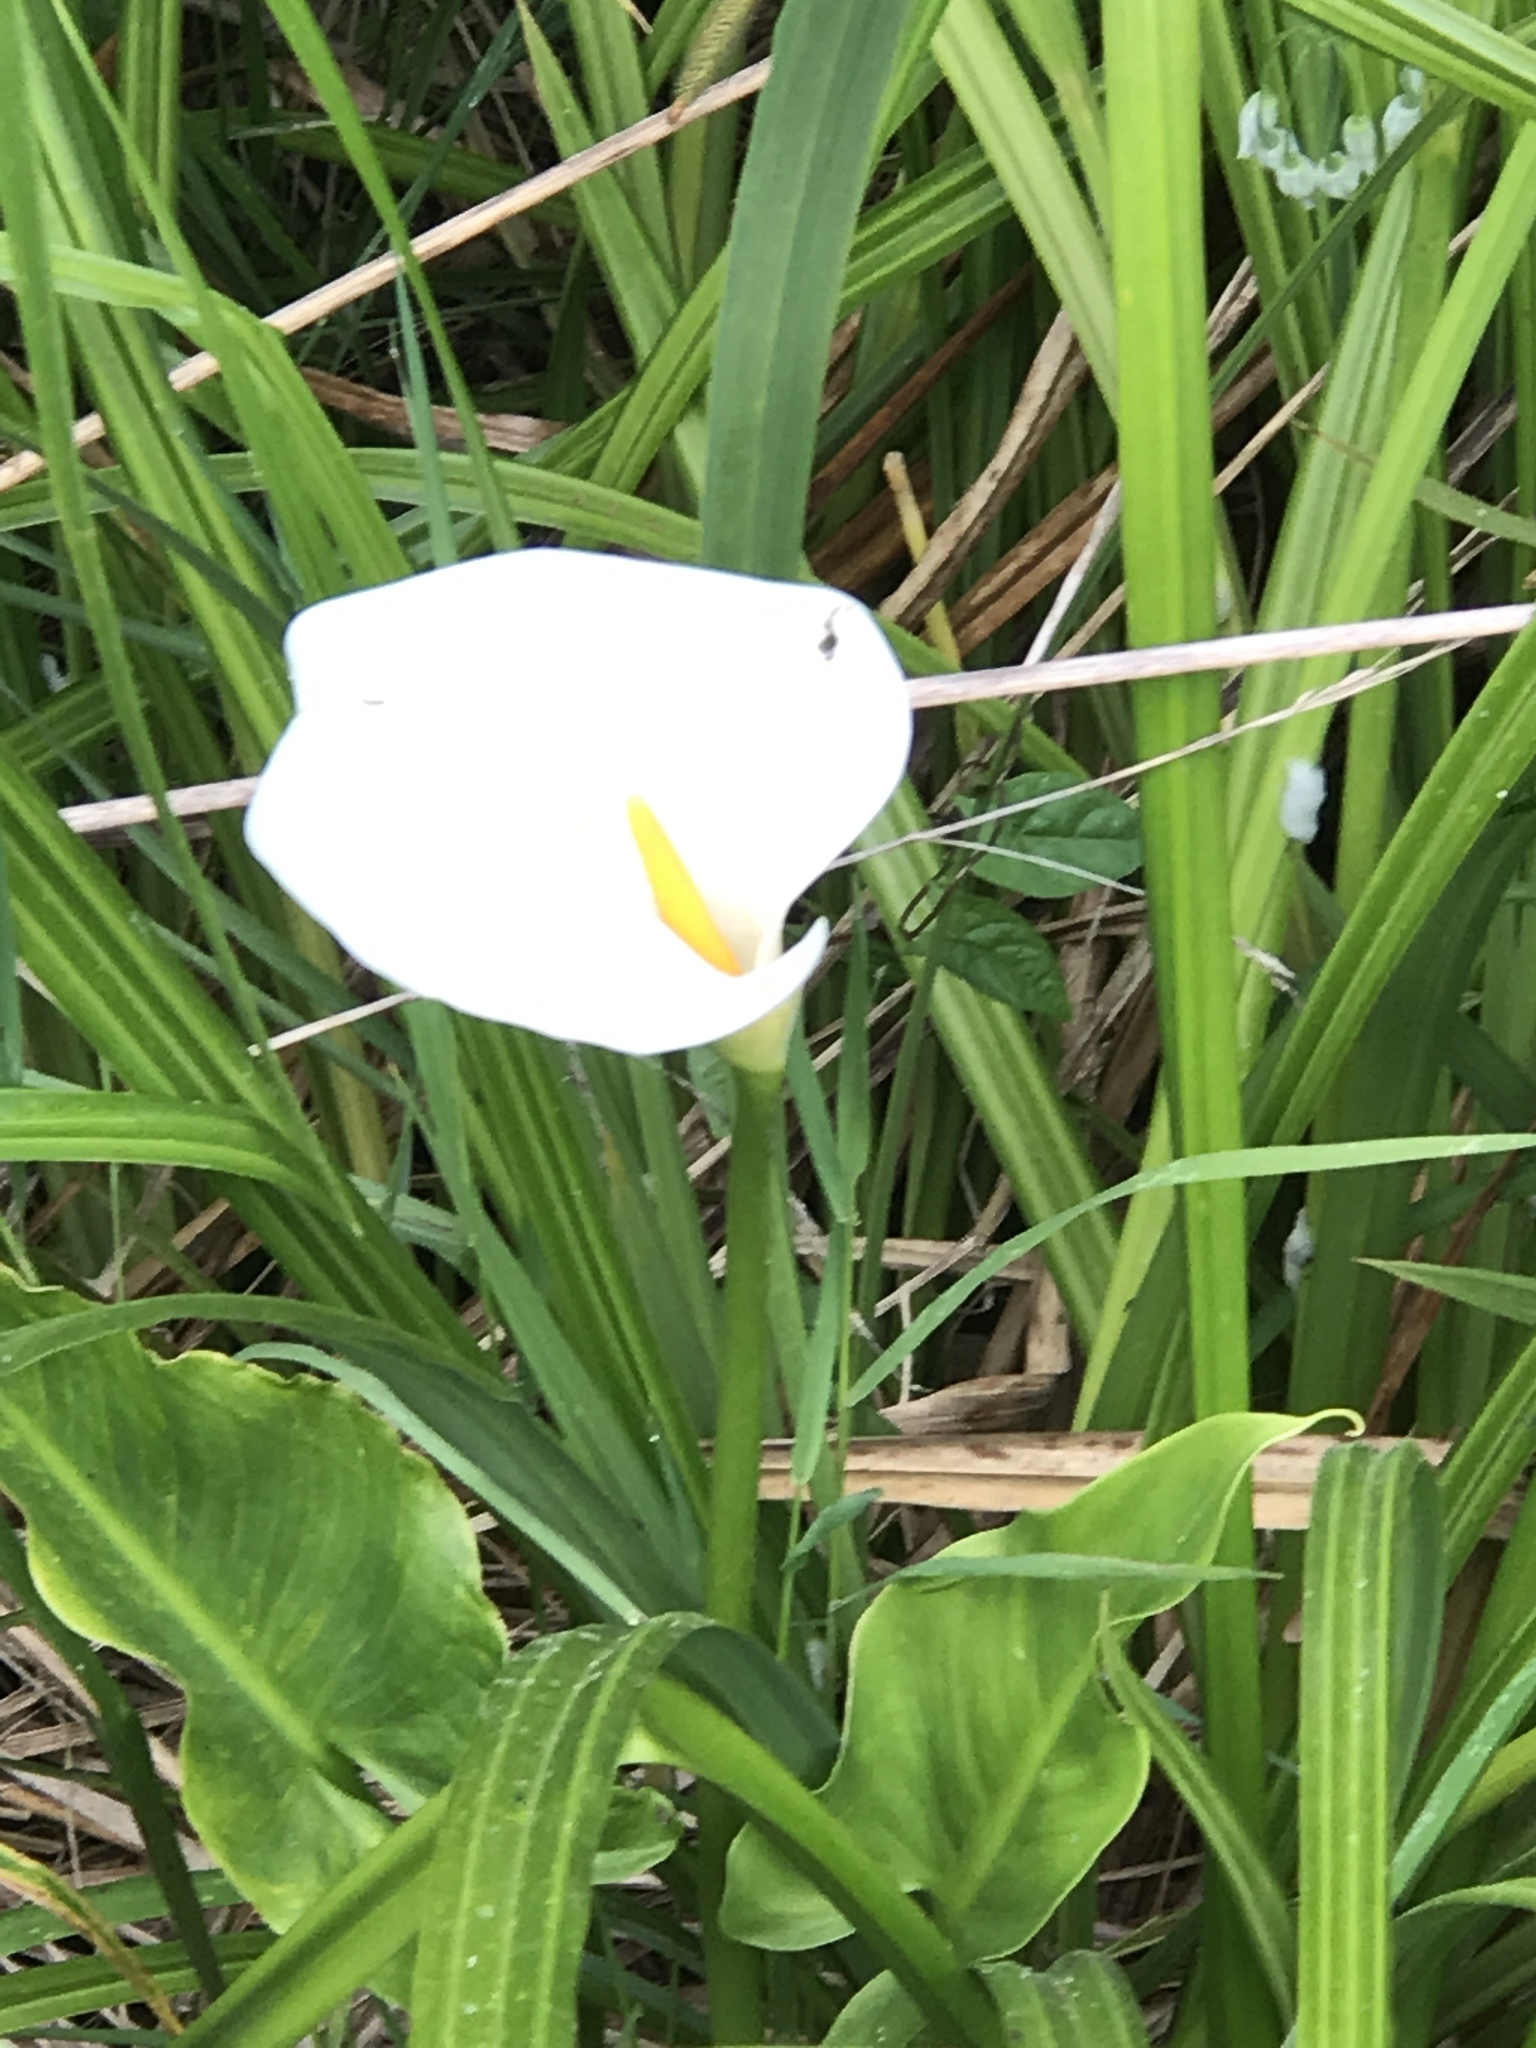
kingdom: Plantae
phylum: Tracheophyta
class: Liliopsida
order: Alismatales
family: Araceae
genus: Zantedeschia
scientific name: Zantedeschia aethiopica
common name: Altar-lily
